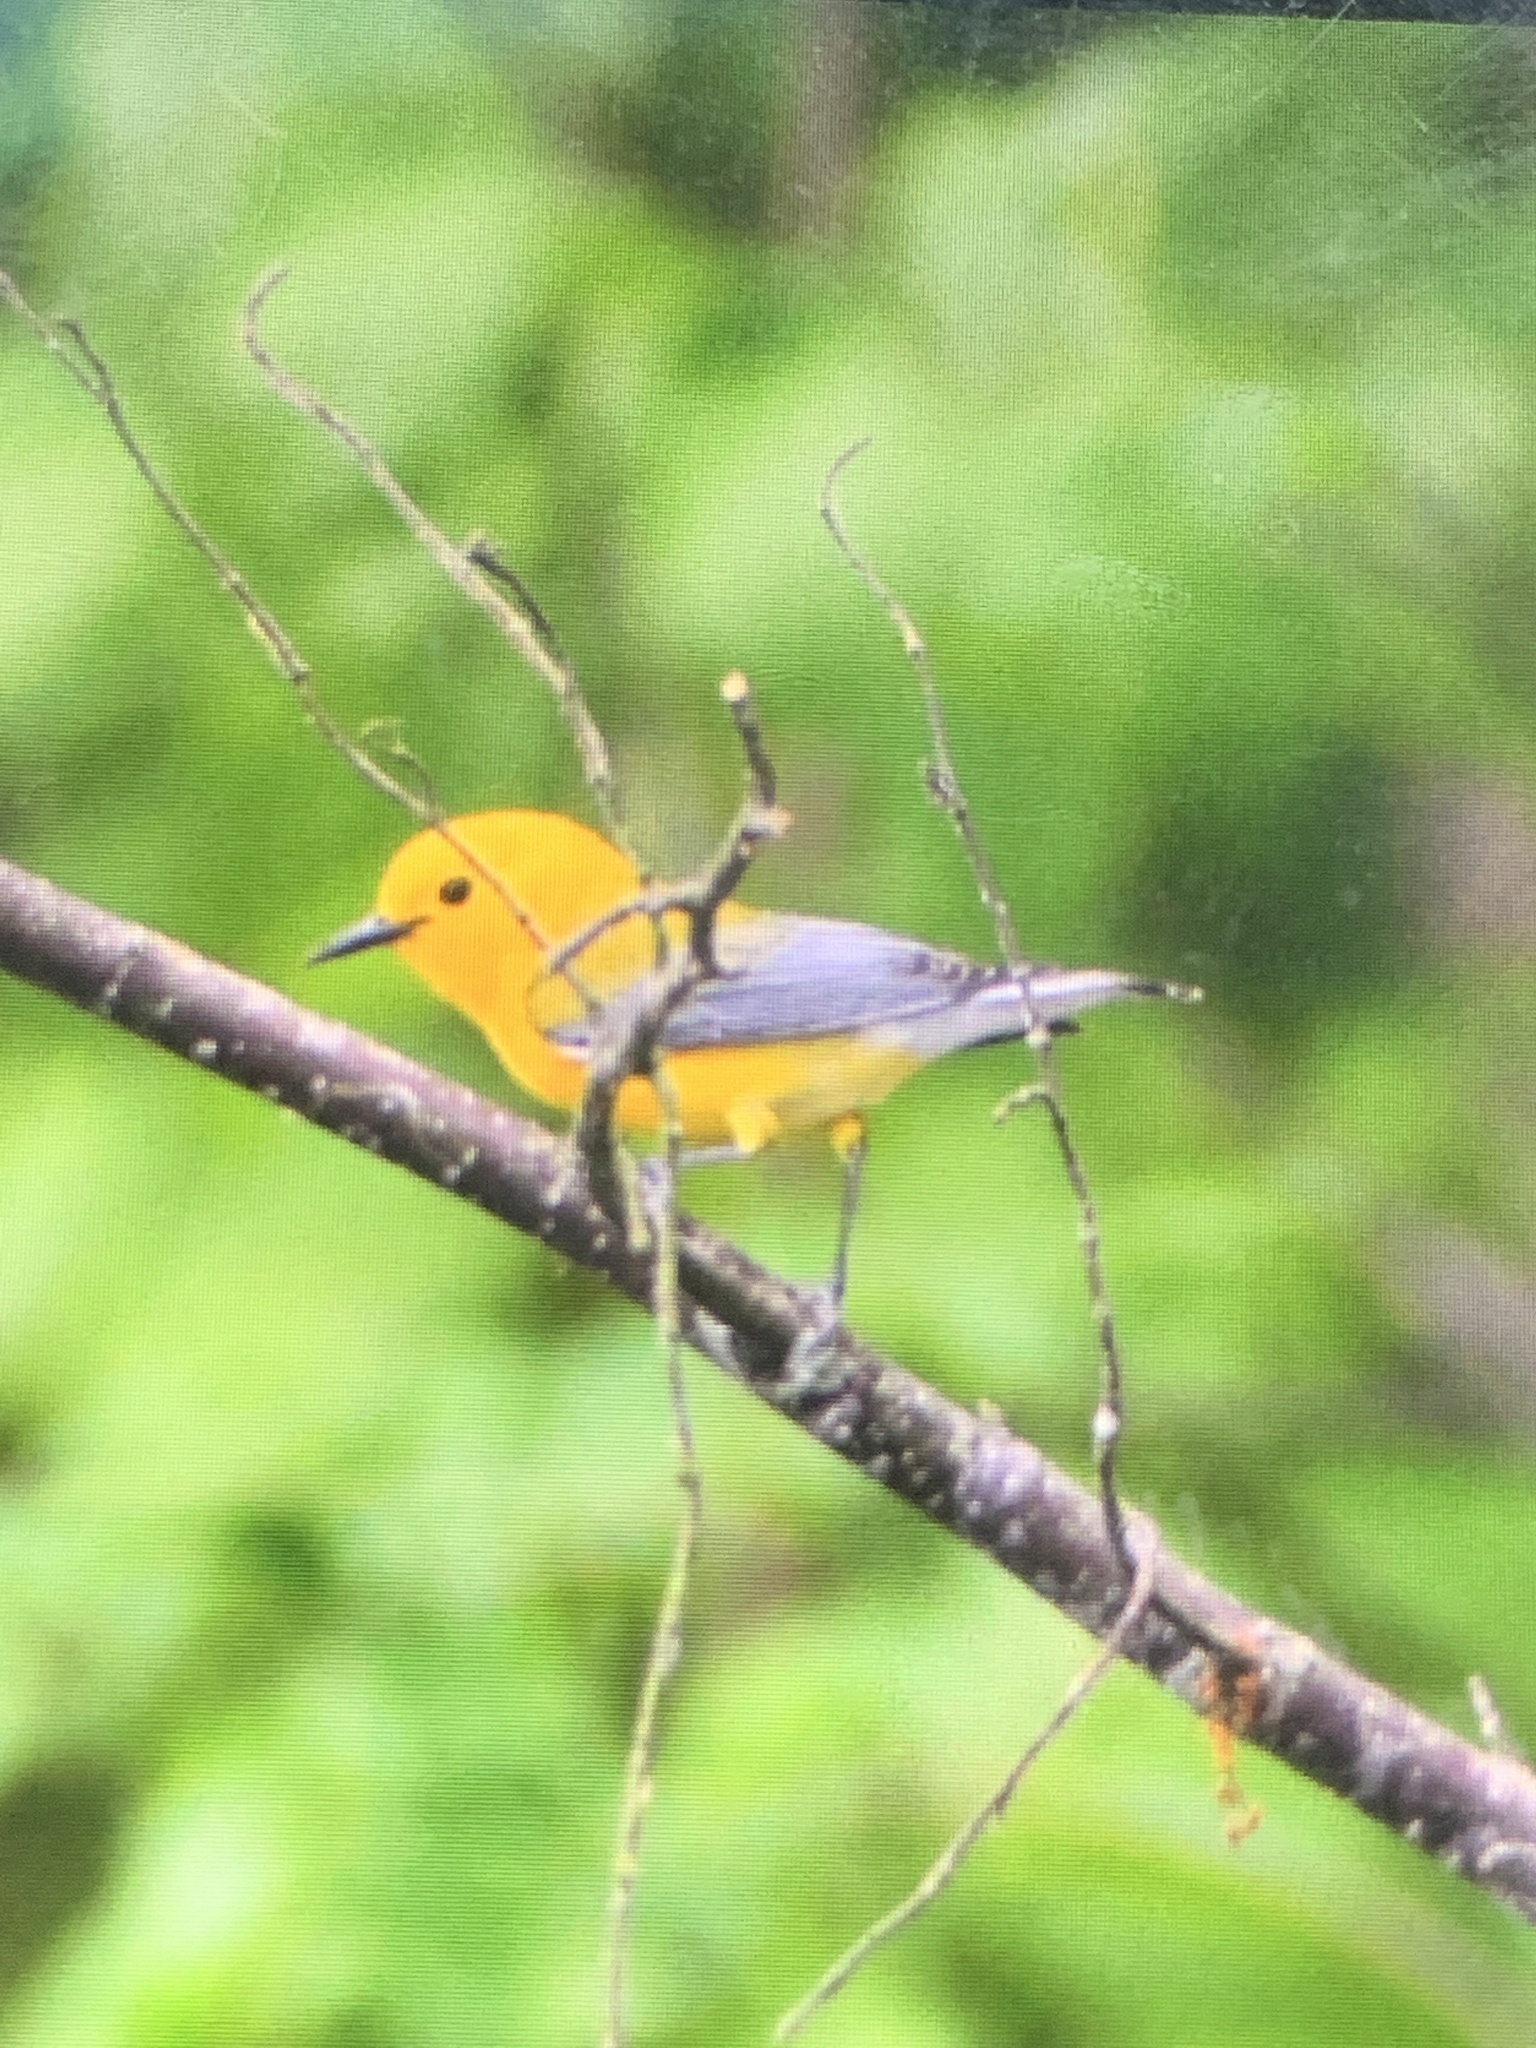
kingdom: Animalia
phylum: Chordata
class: Aves
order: Passeriformes
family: Parulidae
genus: Protonotaria
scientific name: Protonotaria citrea
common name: Prothonotary warbler
